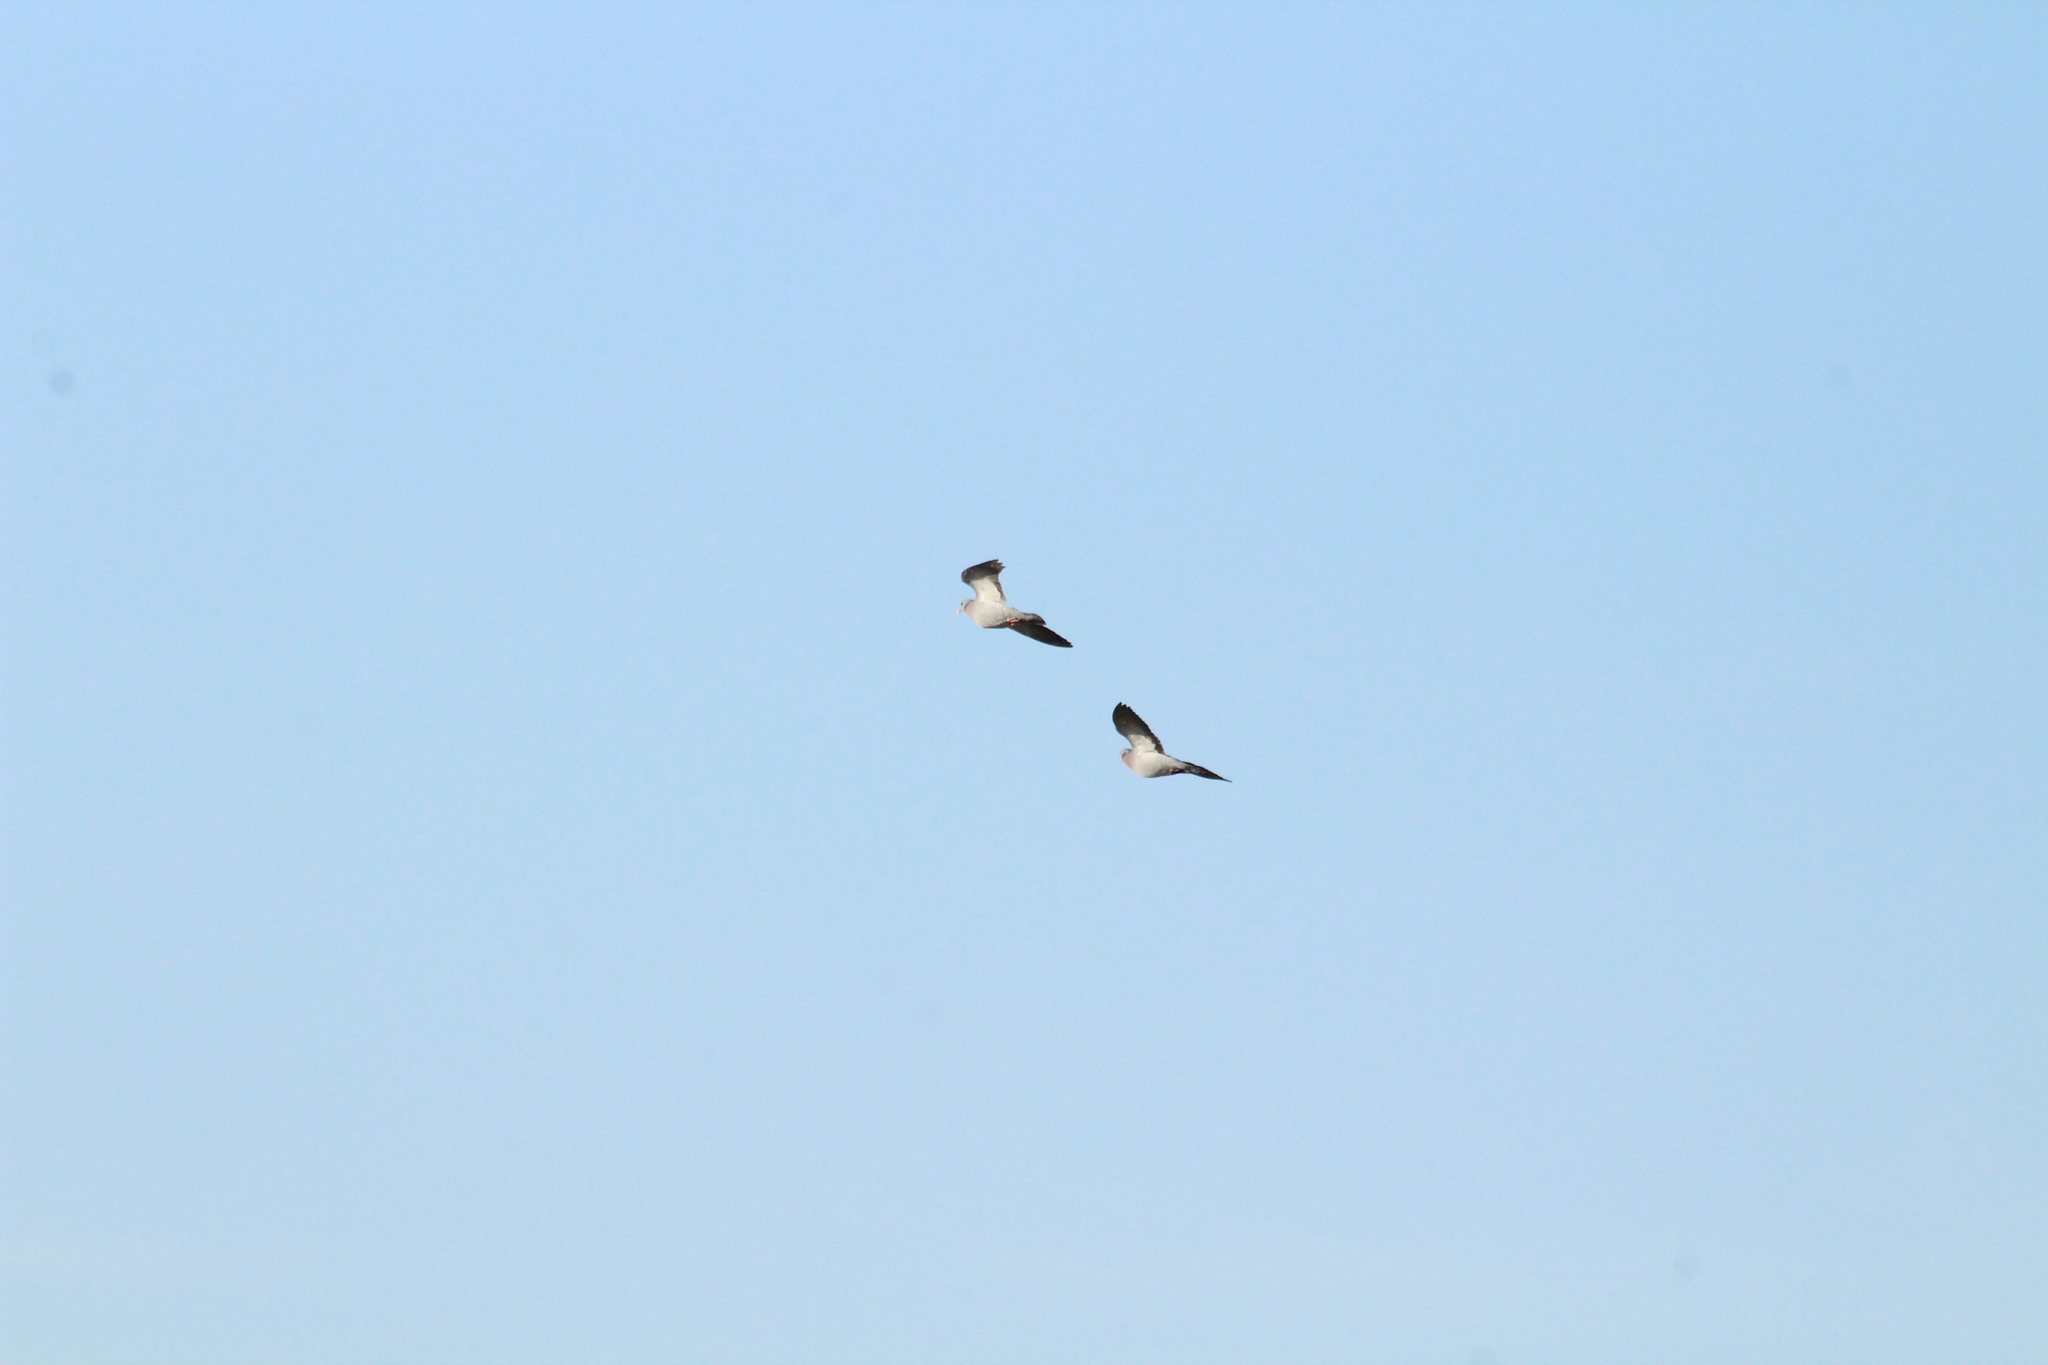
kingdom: Animalia
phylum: Chordata
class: Aves
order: Columbiformes
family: Columbidae
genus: Columba
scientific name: Columba oenas
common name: Stock dove
